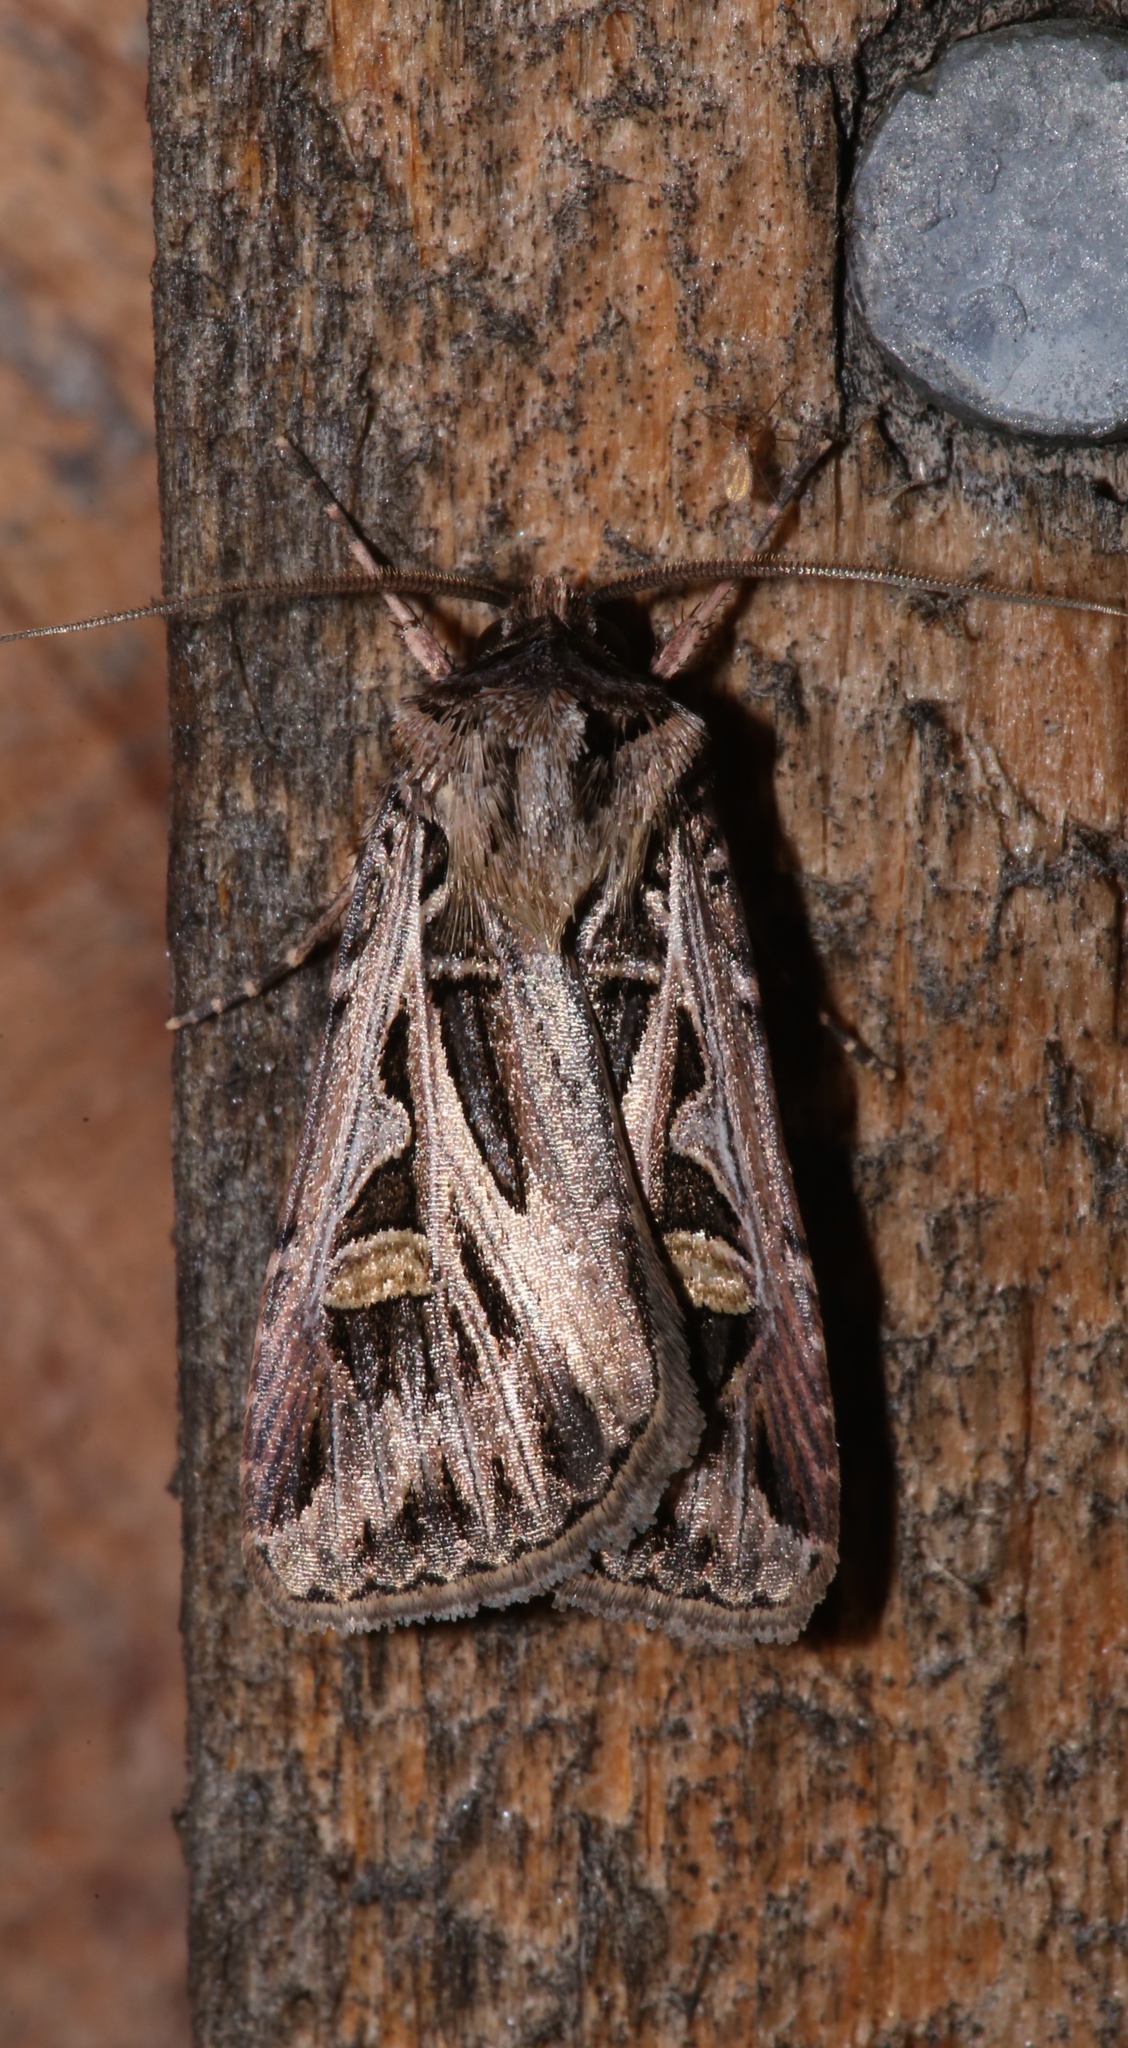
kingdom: Animalia
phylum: Arthropoda
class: Insecta
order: Lepidoptera
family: Noctuidae
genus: Feltia
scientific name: Feltia jaculifera
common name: Dingy cutworm moth
